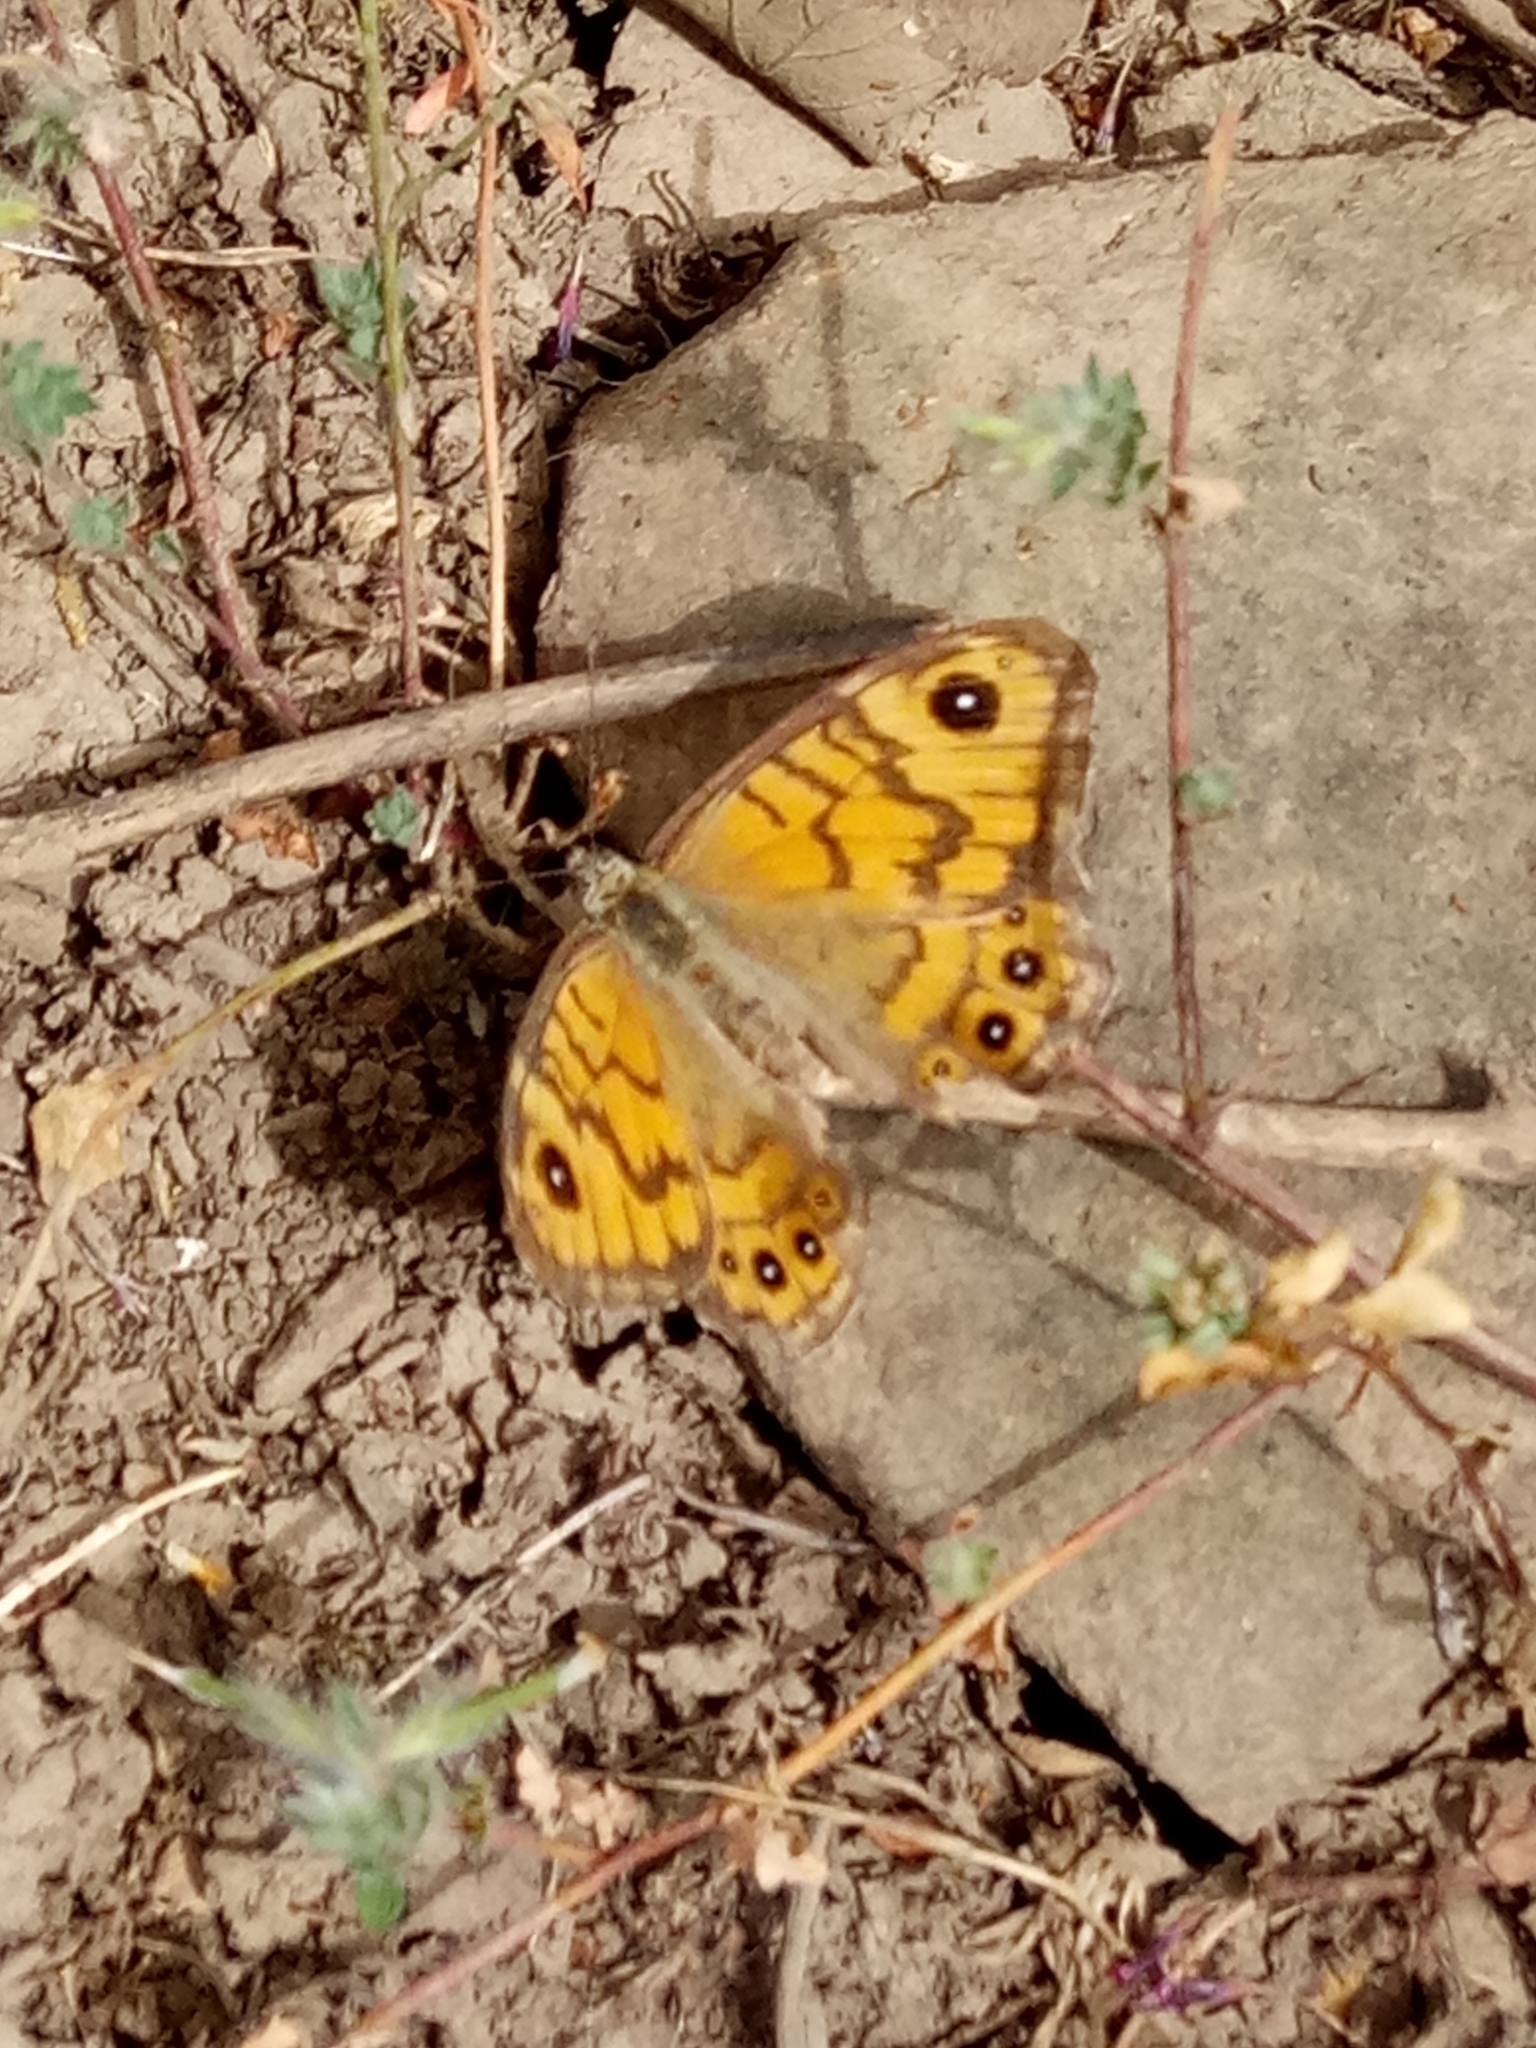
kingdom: Animalia
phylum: Arthropoda
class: Insecta
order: Lepidoptera
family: Nymphalidae
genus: Pararge
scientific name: Pararge Lasiommata megera
